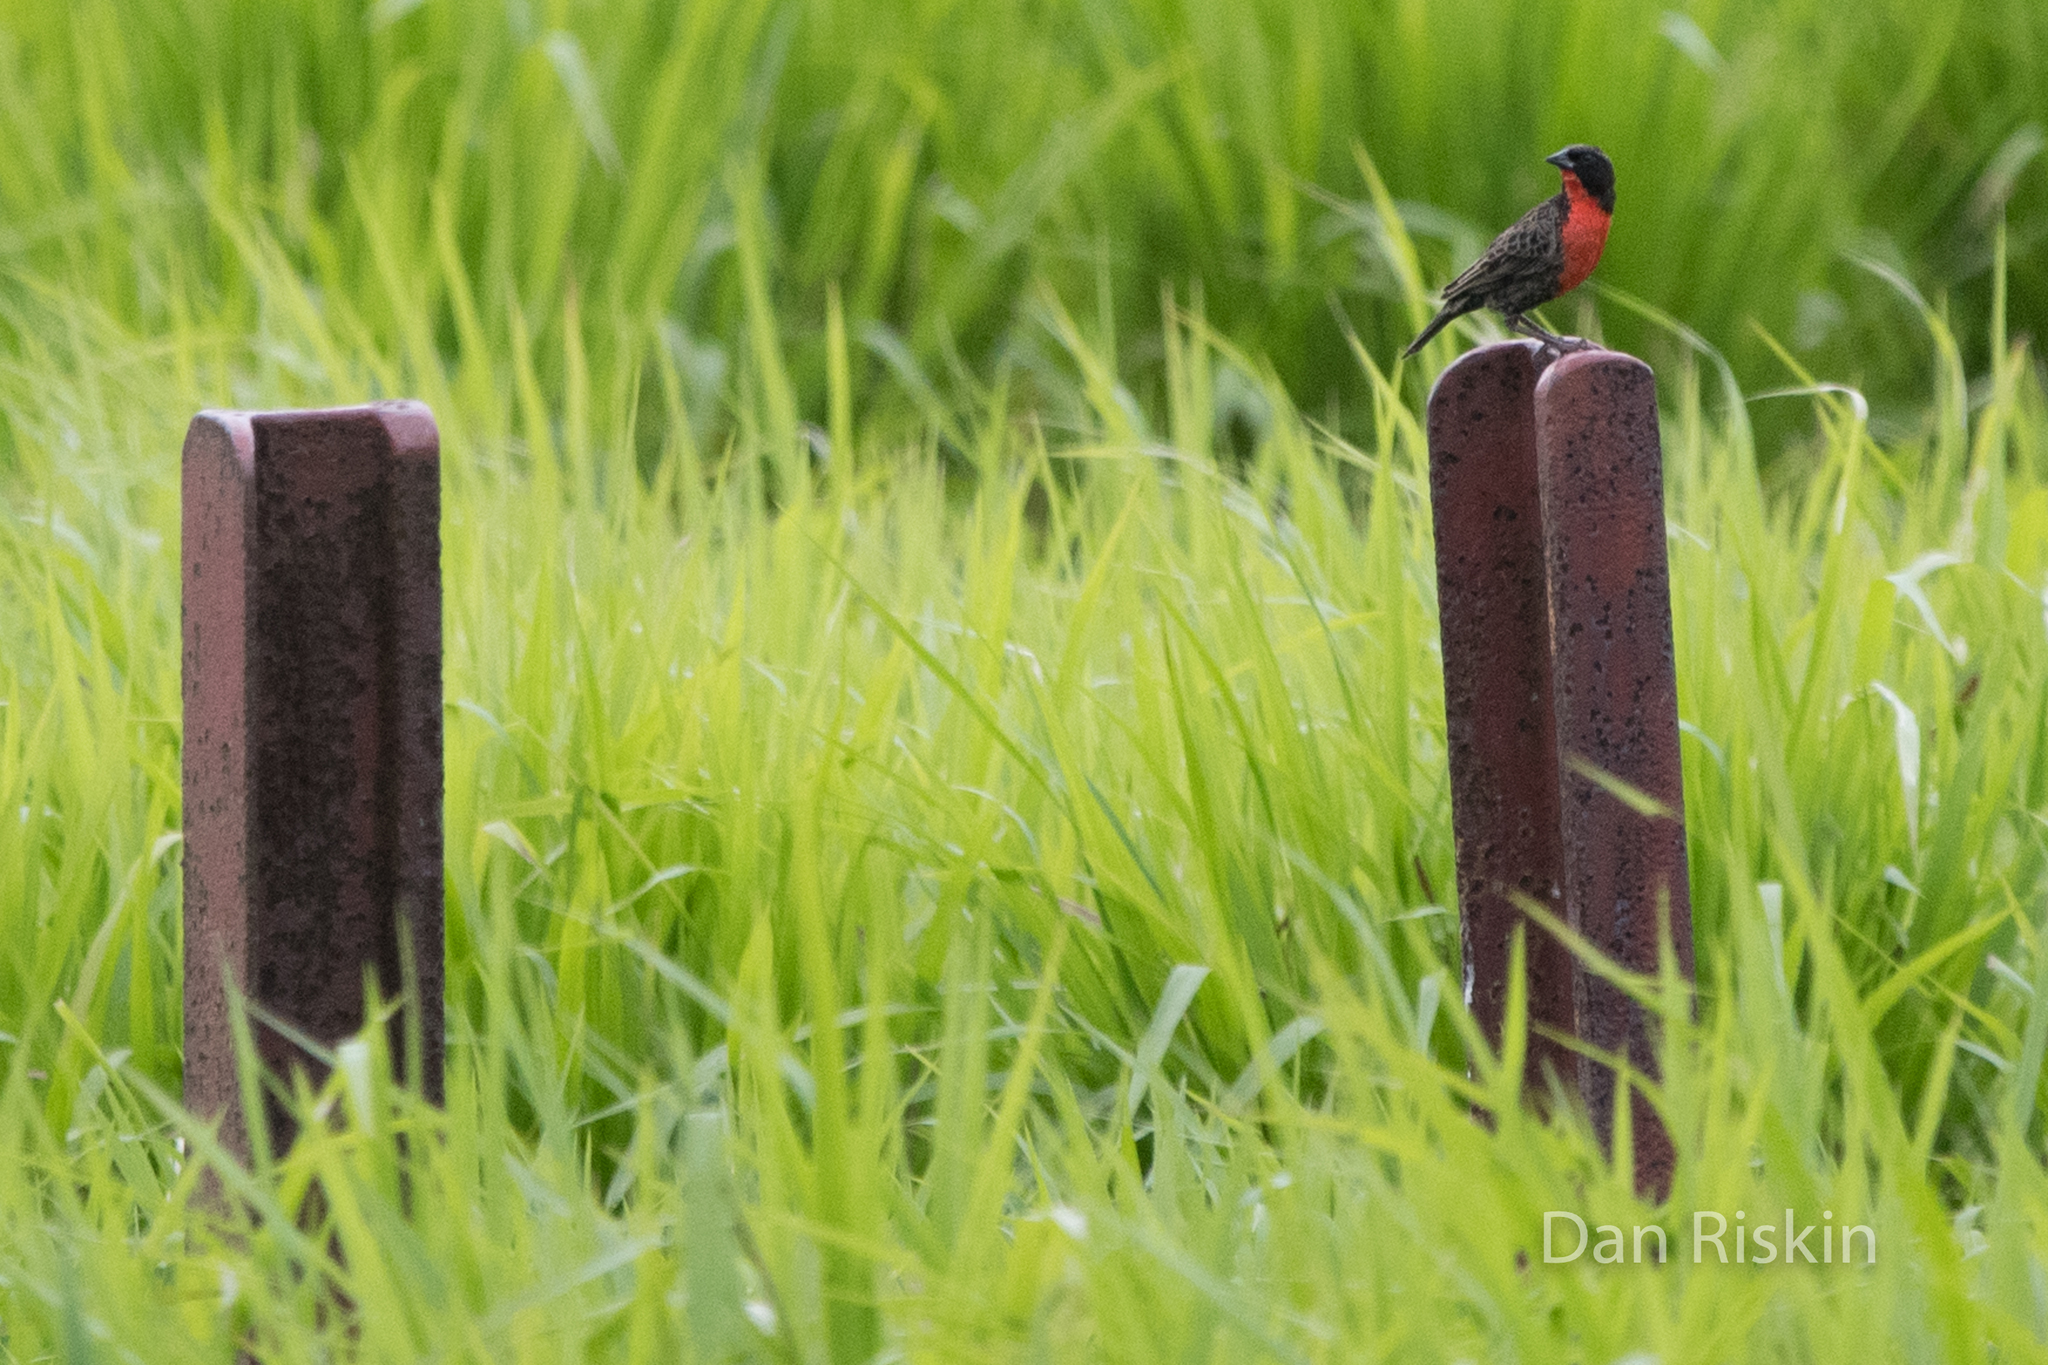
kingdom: Animalia
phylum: Chordata
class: Aves
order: Passeriformes
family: Icteridae
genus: Sturnella
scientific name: Sturnella militaris
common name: Red-breasted blackbird
